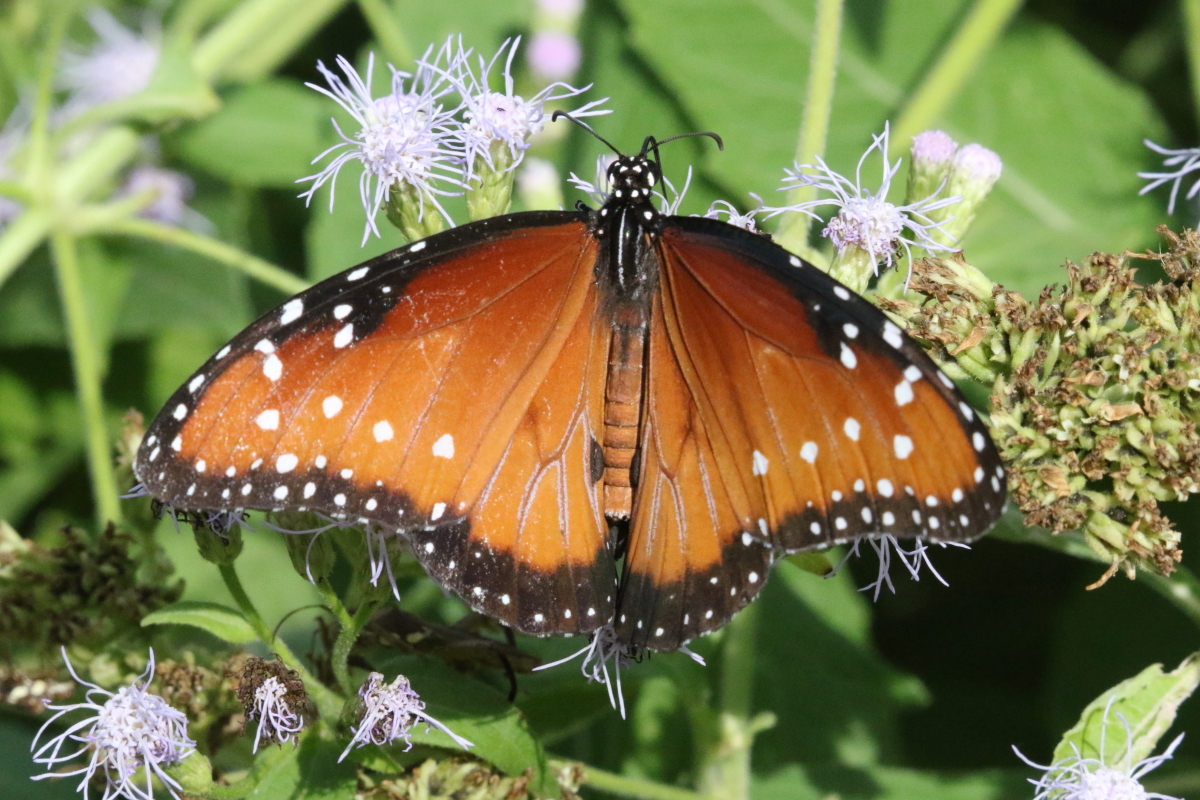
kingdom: Animalia
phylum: Arthropoda
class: Insecta
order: Lepidoptera
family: Nymphalidae
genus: Danaus
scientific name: Danaus gilippus
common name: Queen
